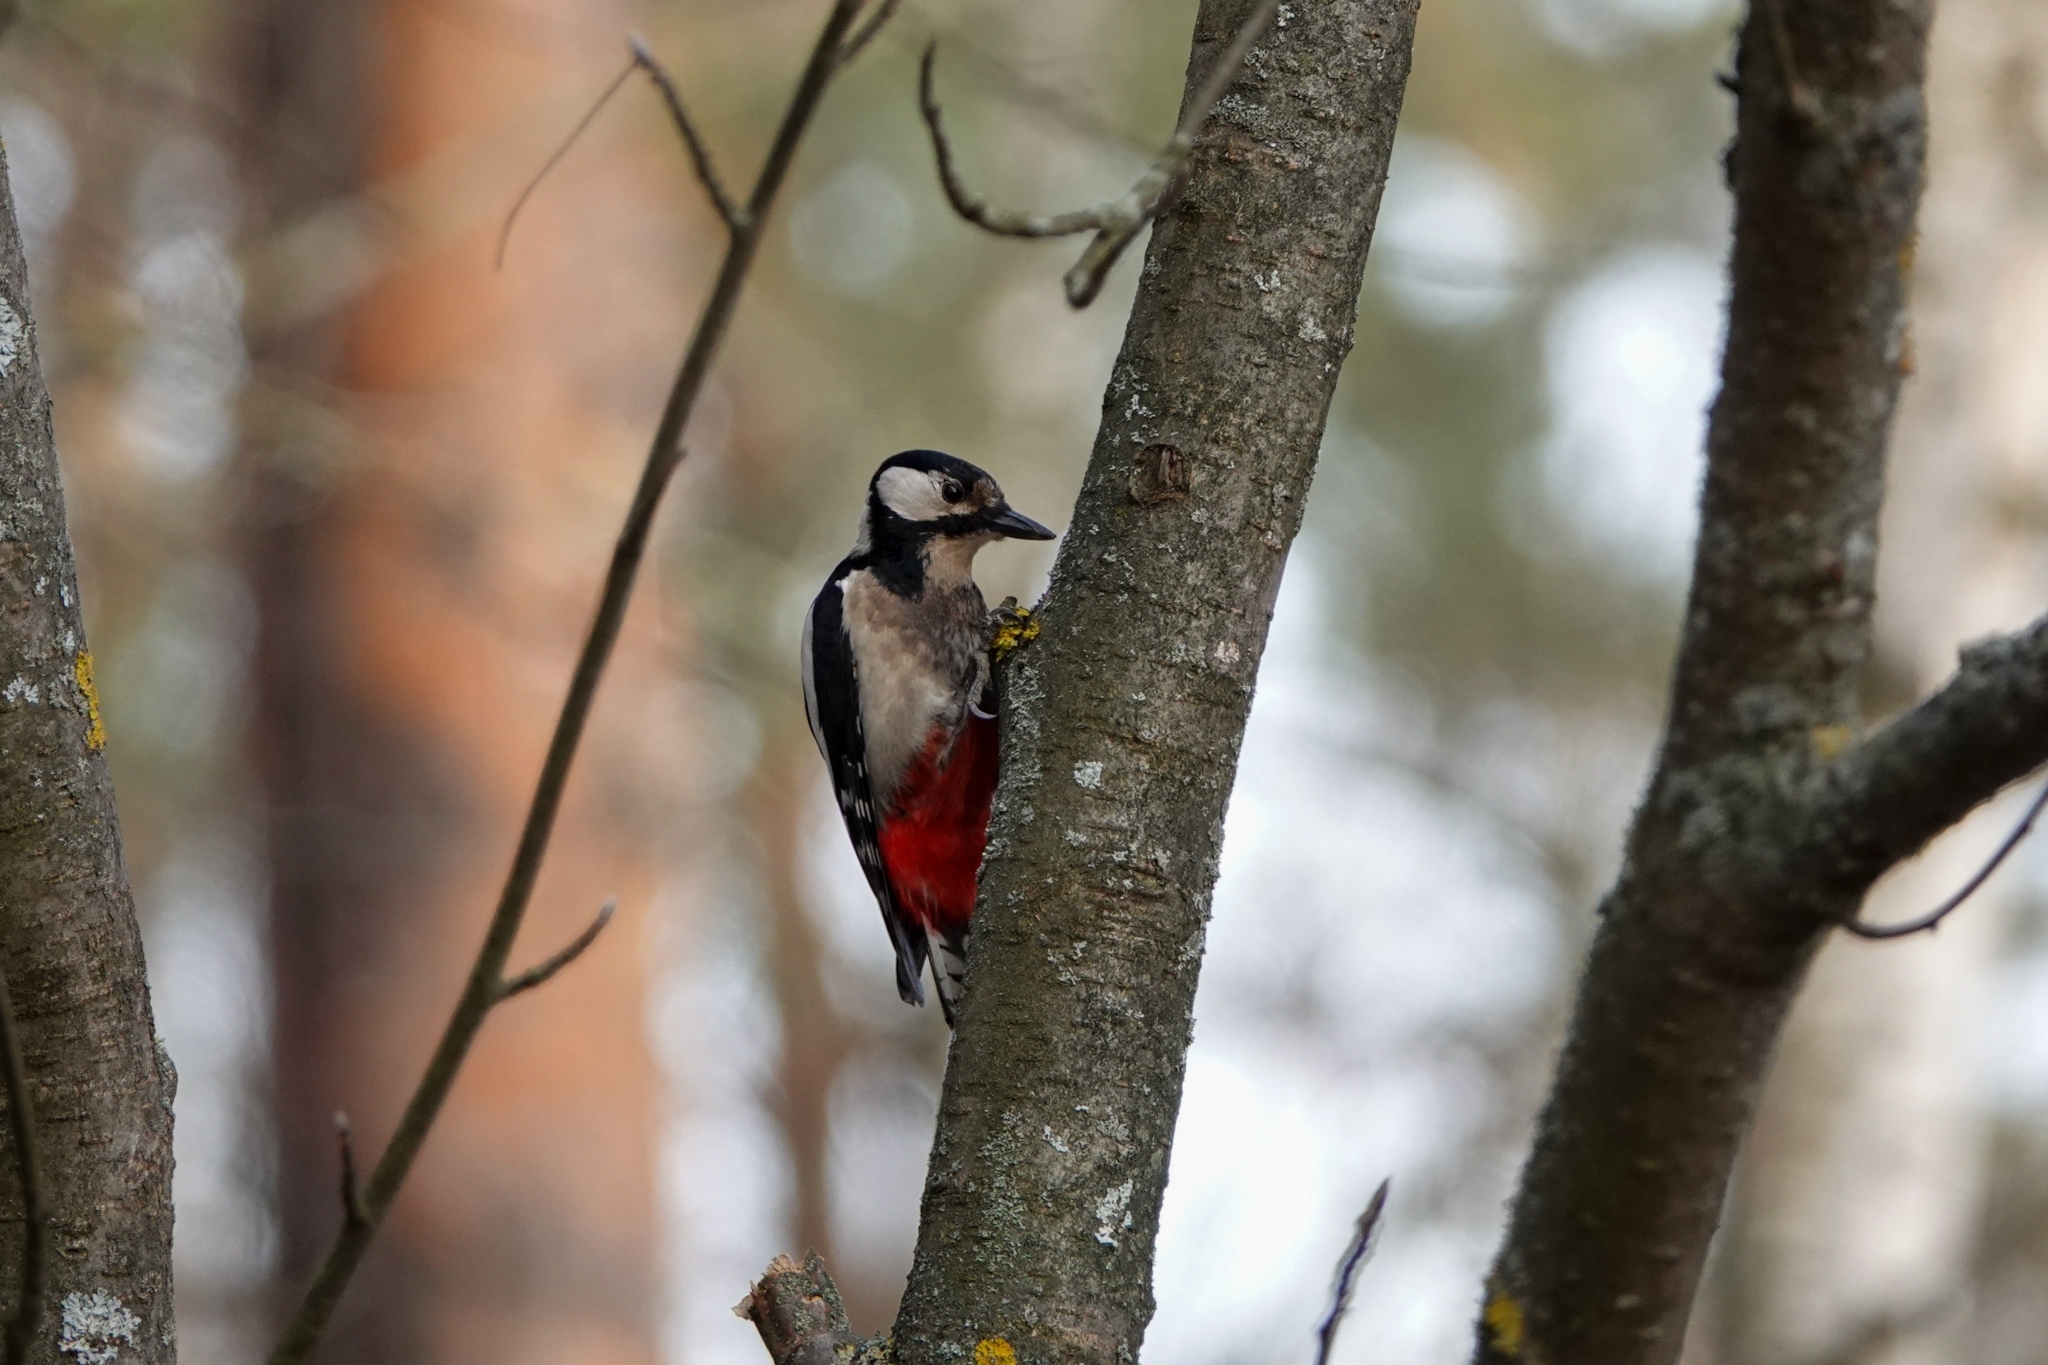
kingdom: Animalia
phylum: Chordata
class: Aves
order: Piciformes
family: Picidae
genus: Dendrocopos
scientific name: Dendrocopos major
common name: Great spotted woodpecker
